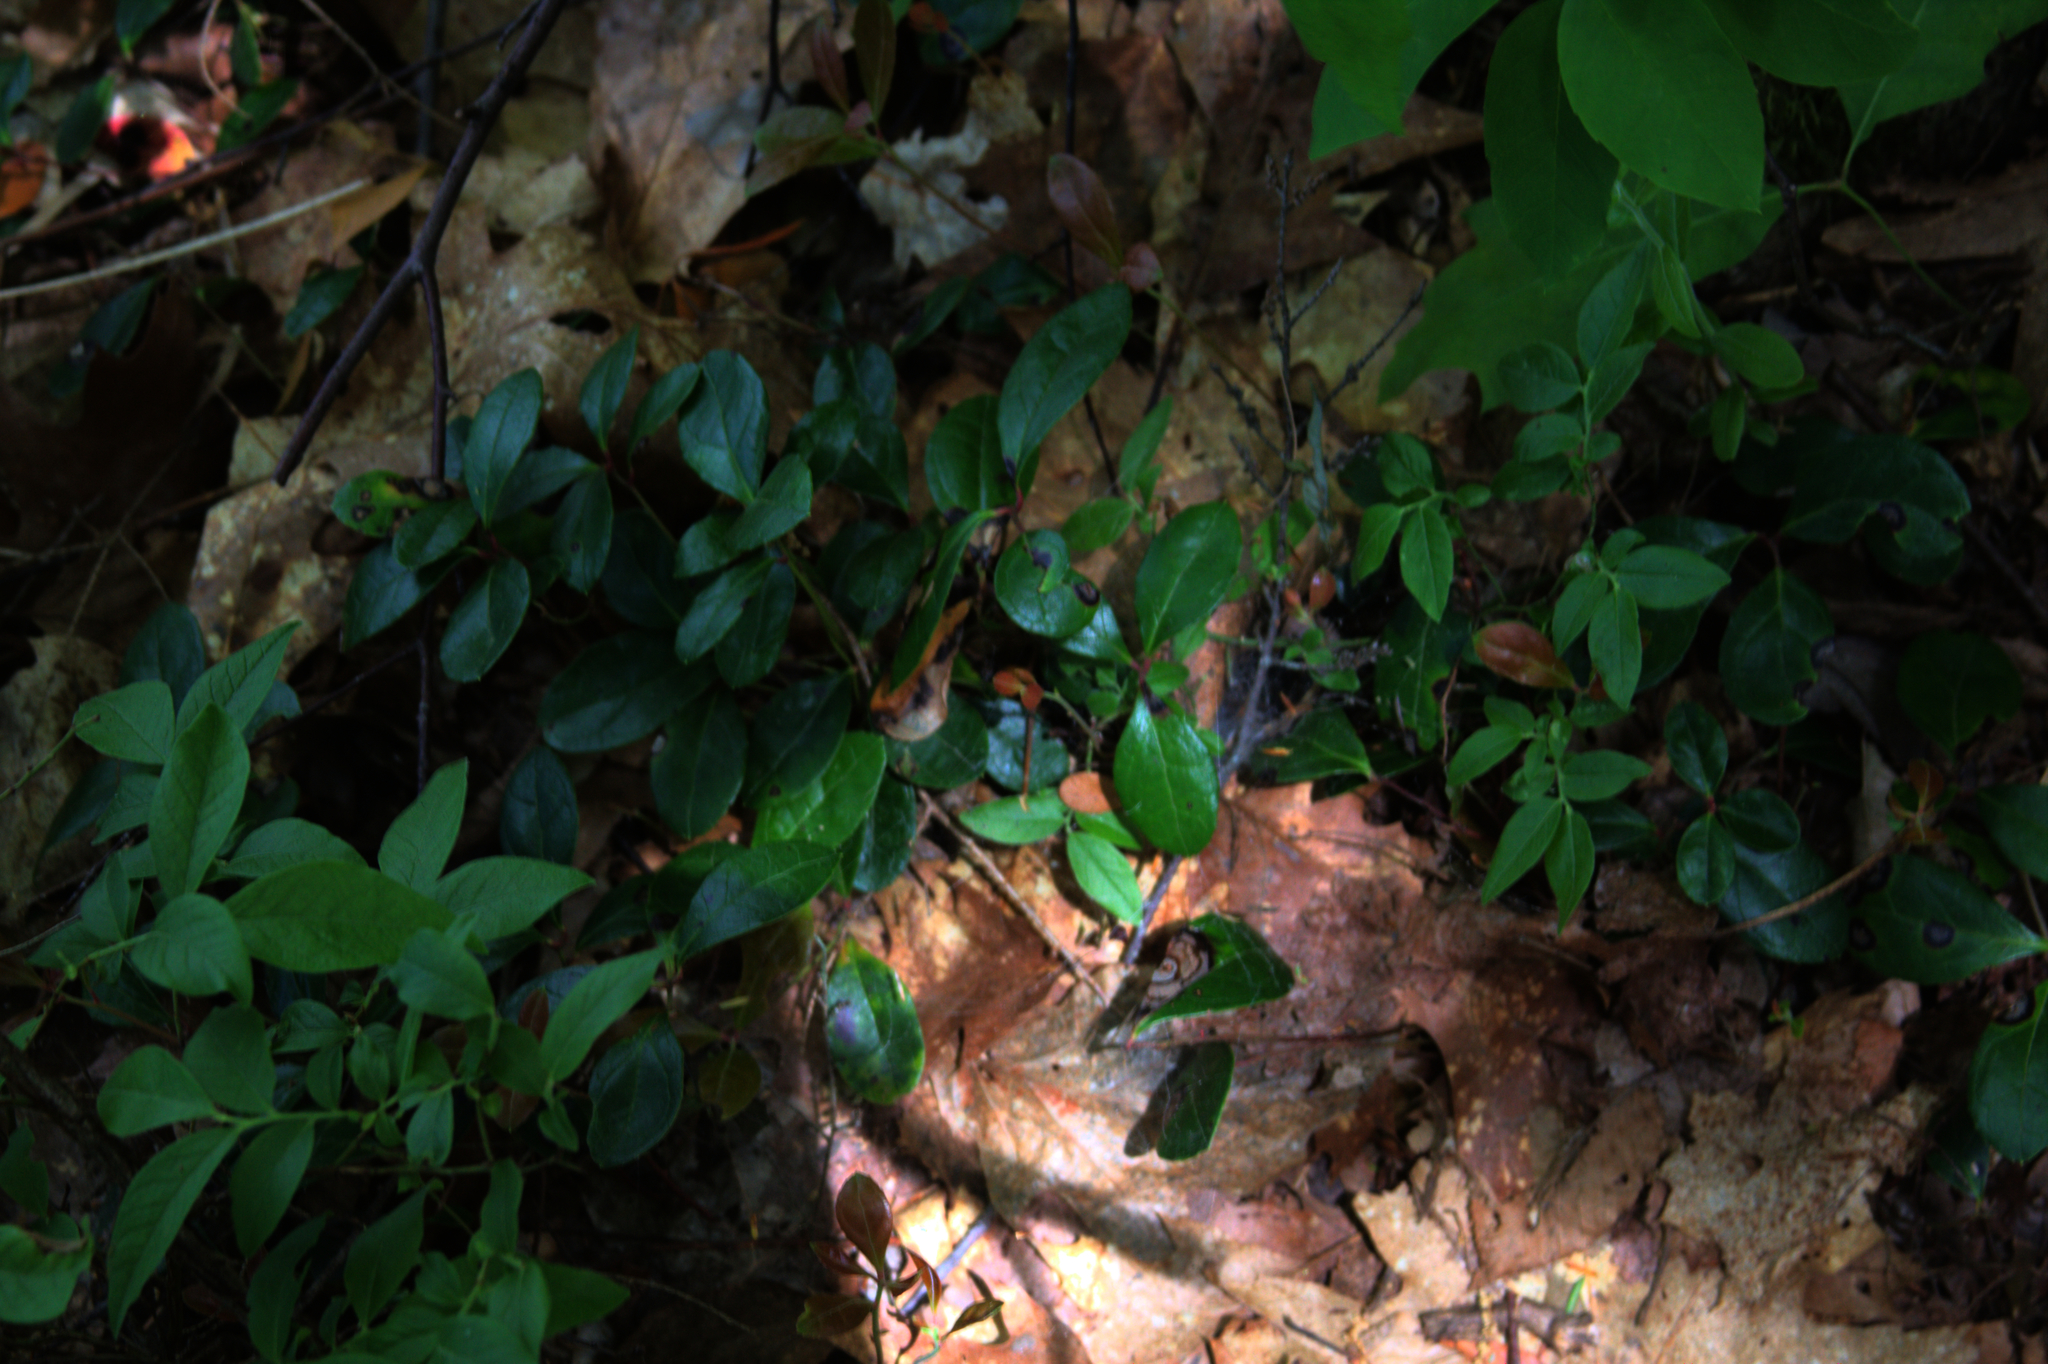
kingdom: Plantae
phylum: Tracheophyta
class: Magnoliopsida
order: Ericales
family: Ericaceae
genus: Gaultheria
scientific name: Gaultheria procumbens
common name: Checkerberry
